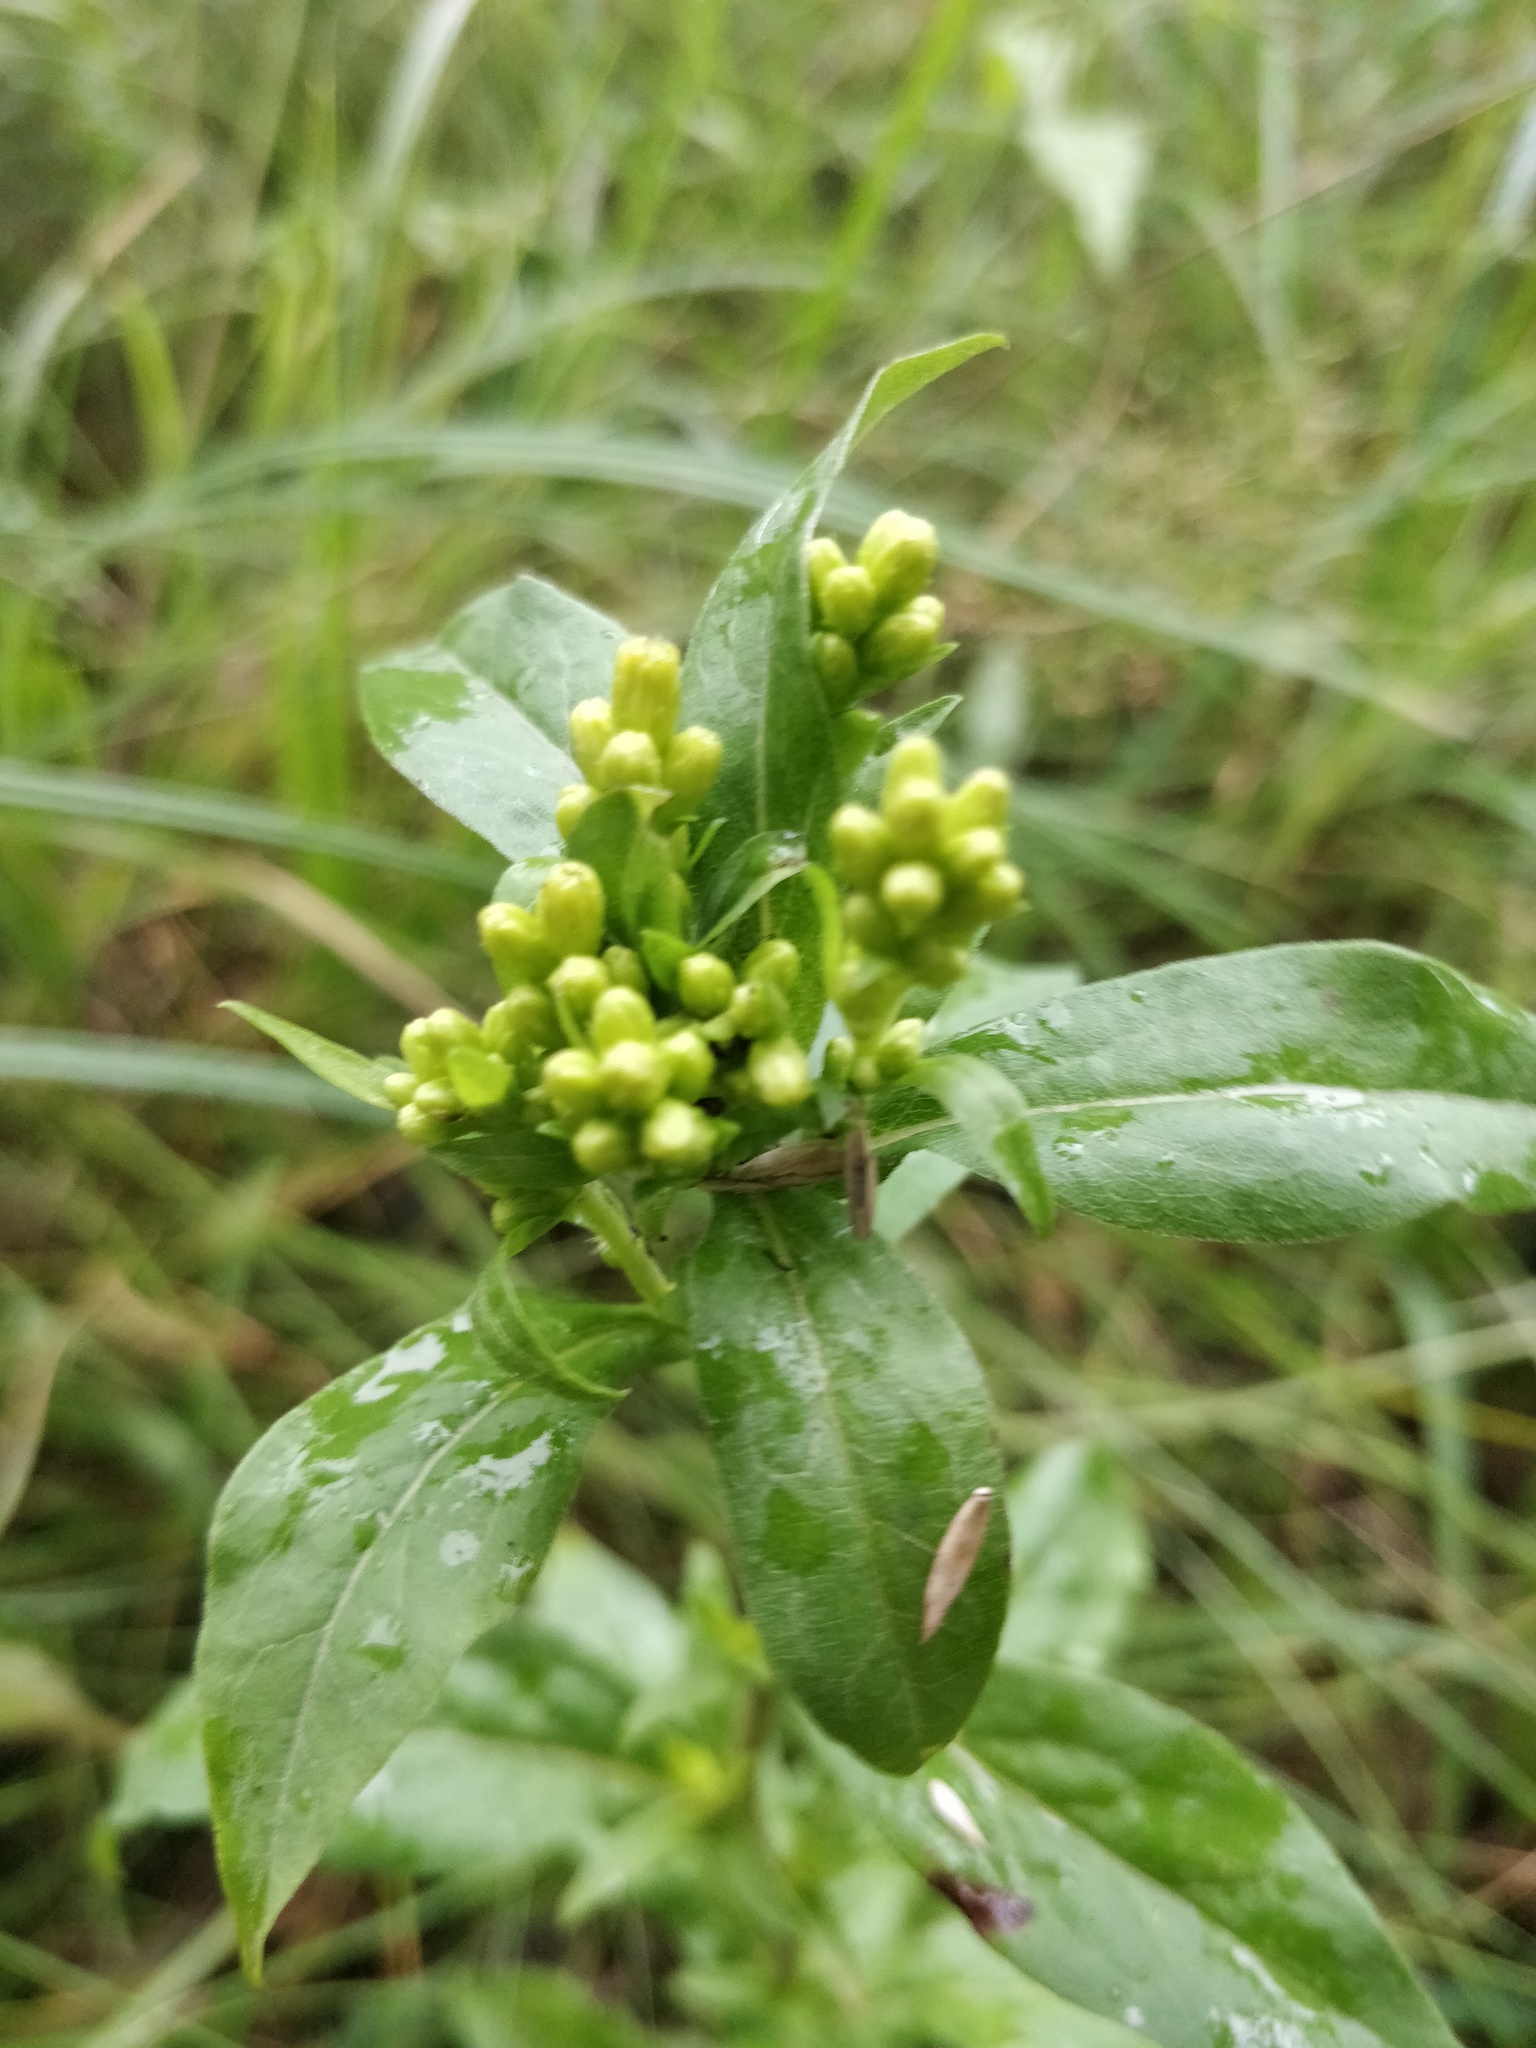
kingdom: Plantae
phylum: Tracheophyta
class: Magnoliopsida
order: Asterales
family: Asteraceae
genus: Solidago
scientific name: Solidago virgaurea
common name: Goldenrod
